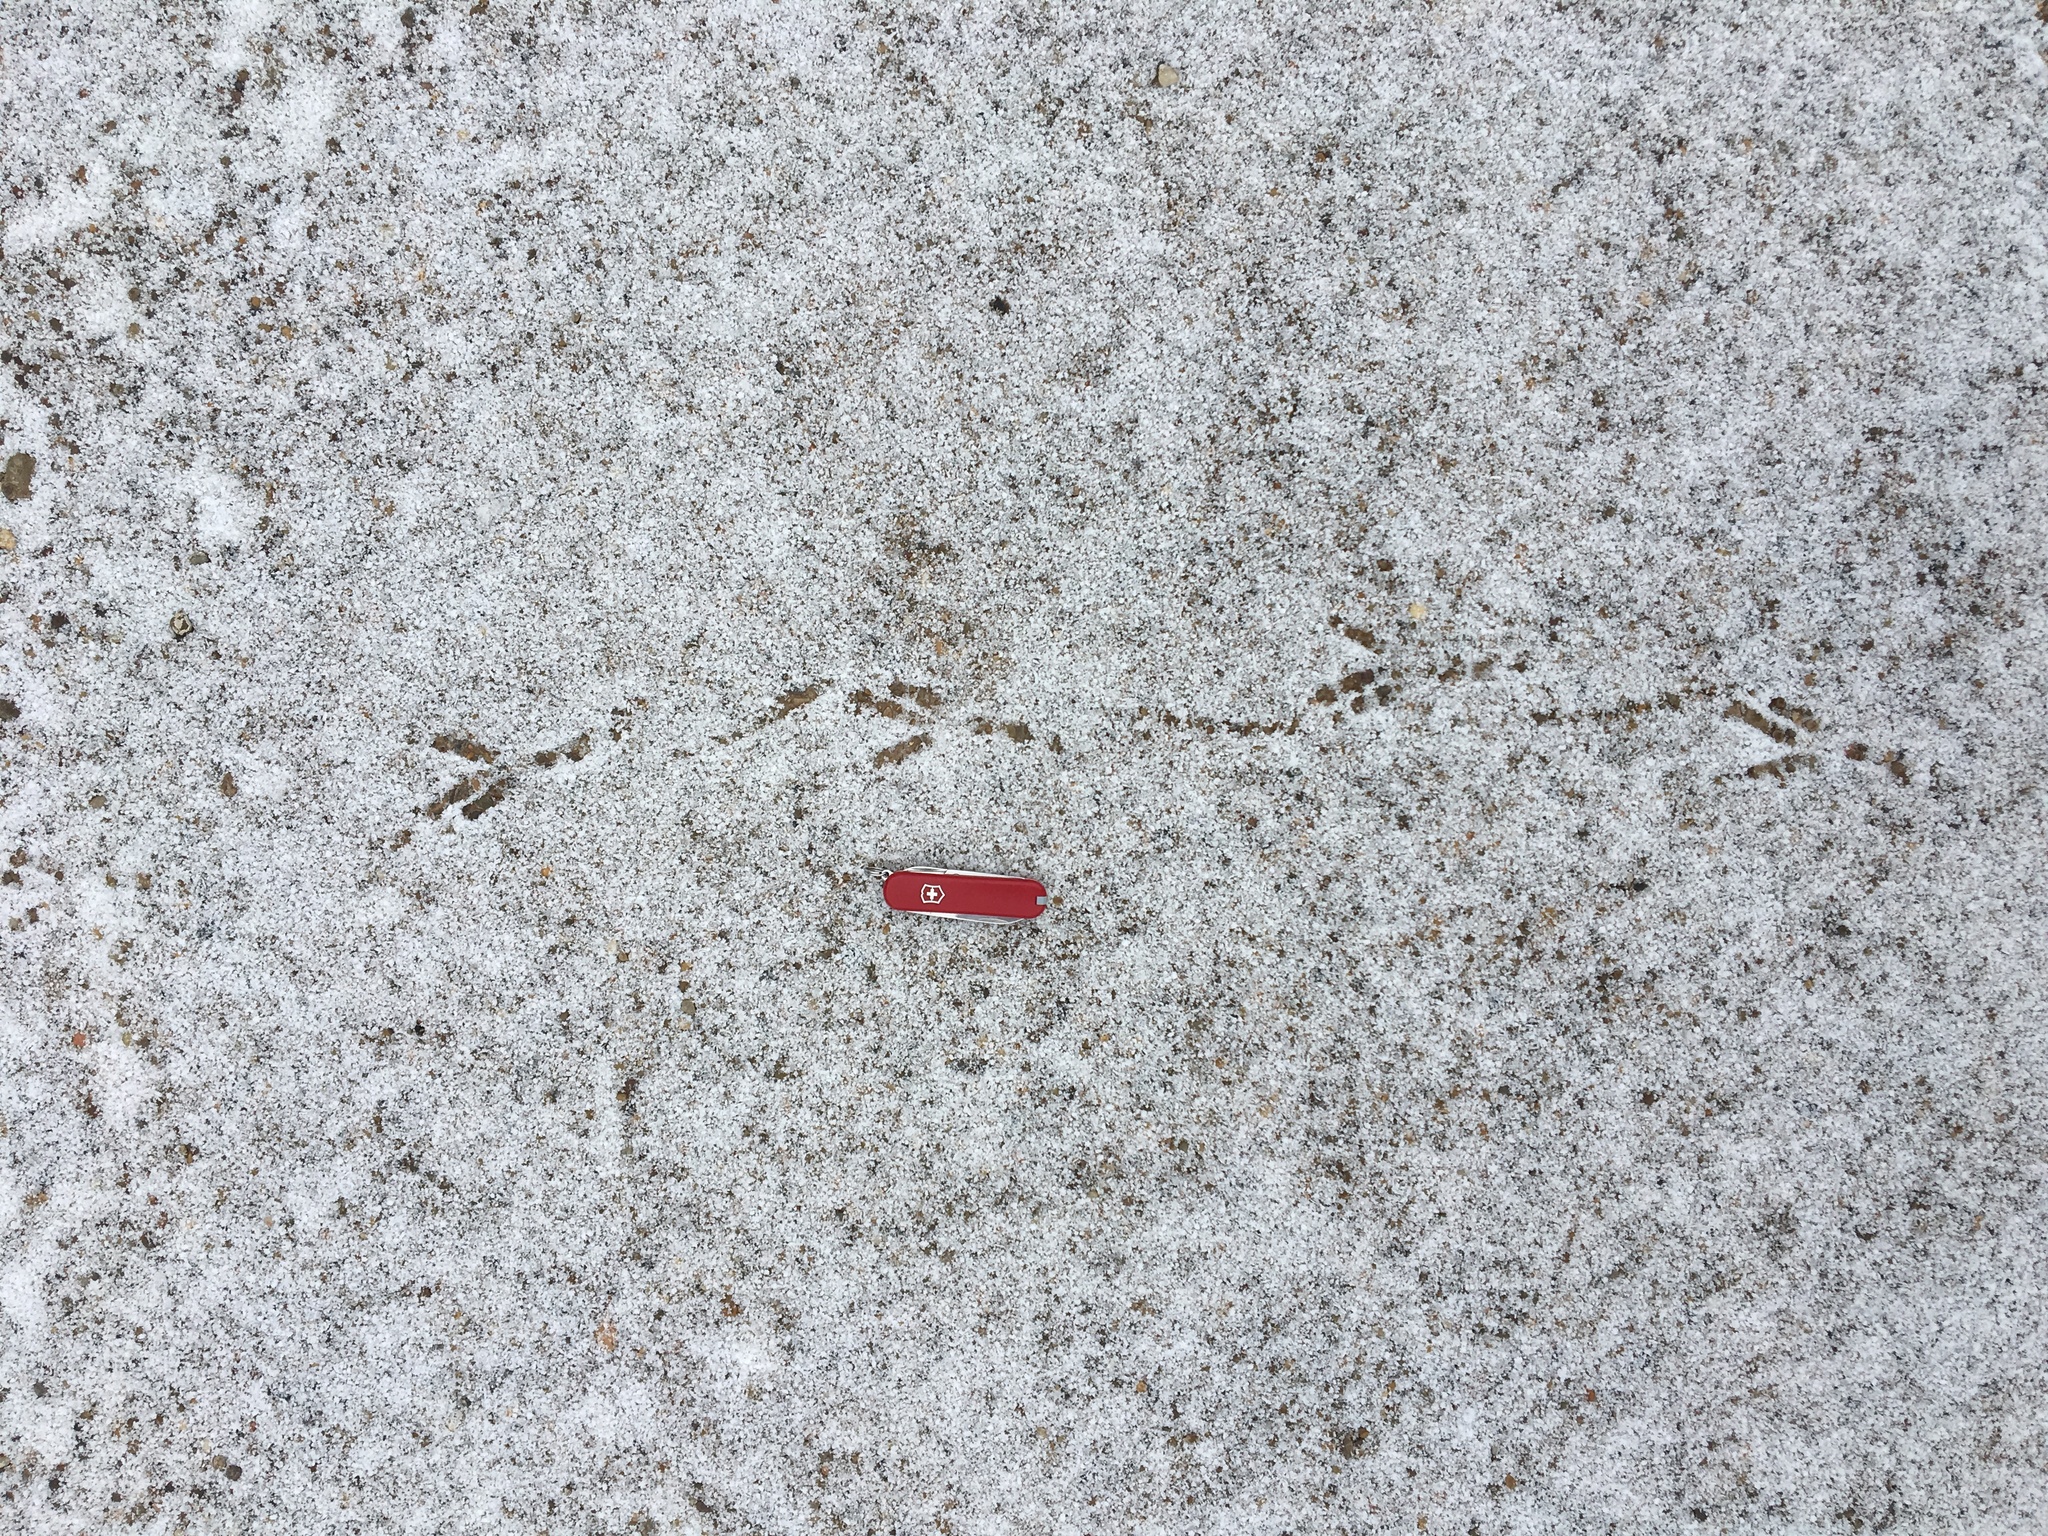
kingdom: Animalia
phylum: Chordata
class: Aves
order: Passeriformes
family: Corvidae
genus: Corvus
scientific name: Corvus brachyrhynchos
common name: American crow
